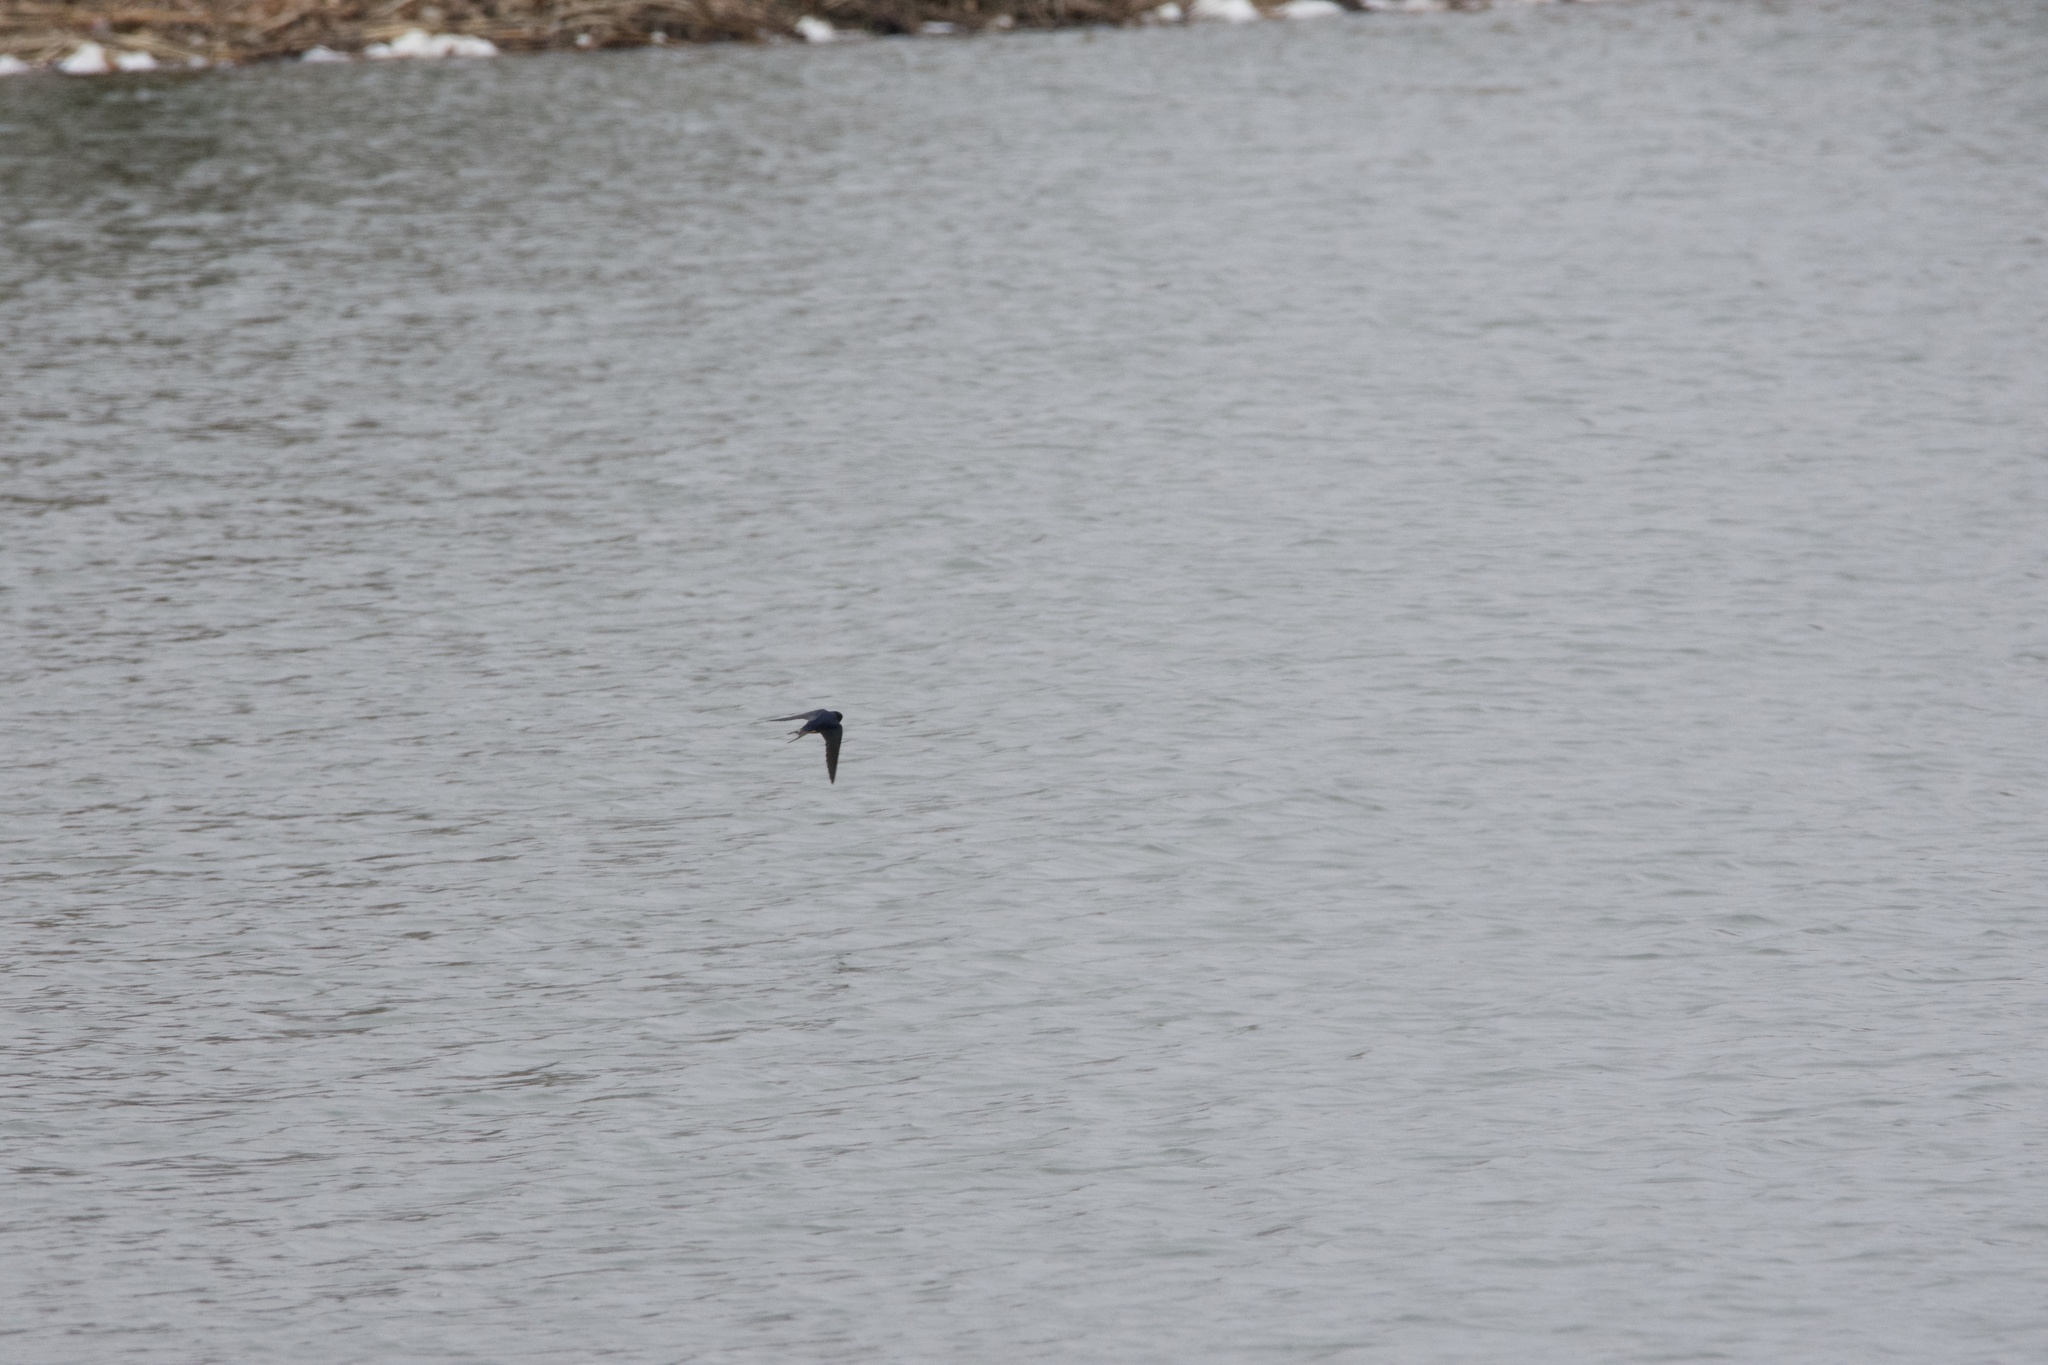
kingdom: Animalia
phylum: Chordata
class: Aves
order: Passeriformes
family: Hirundinidae
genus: Hirundo
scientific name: Hirundo rustica
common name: Barn swallow
